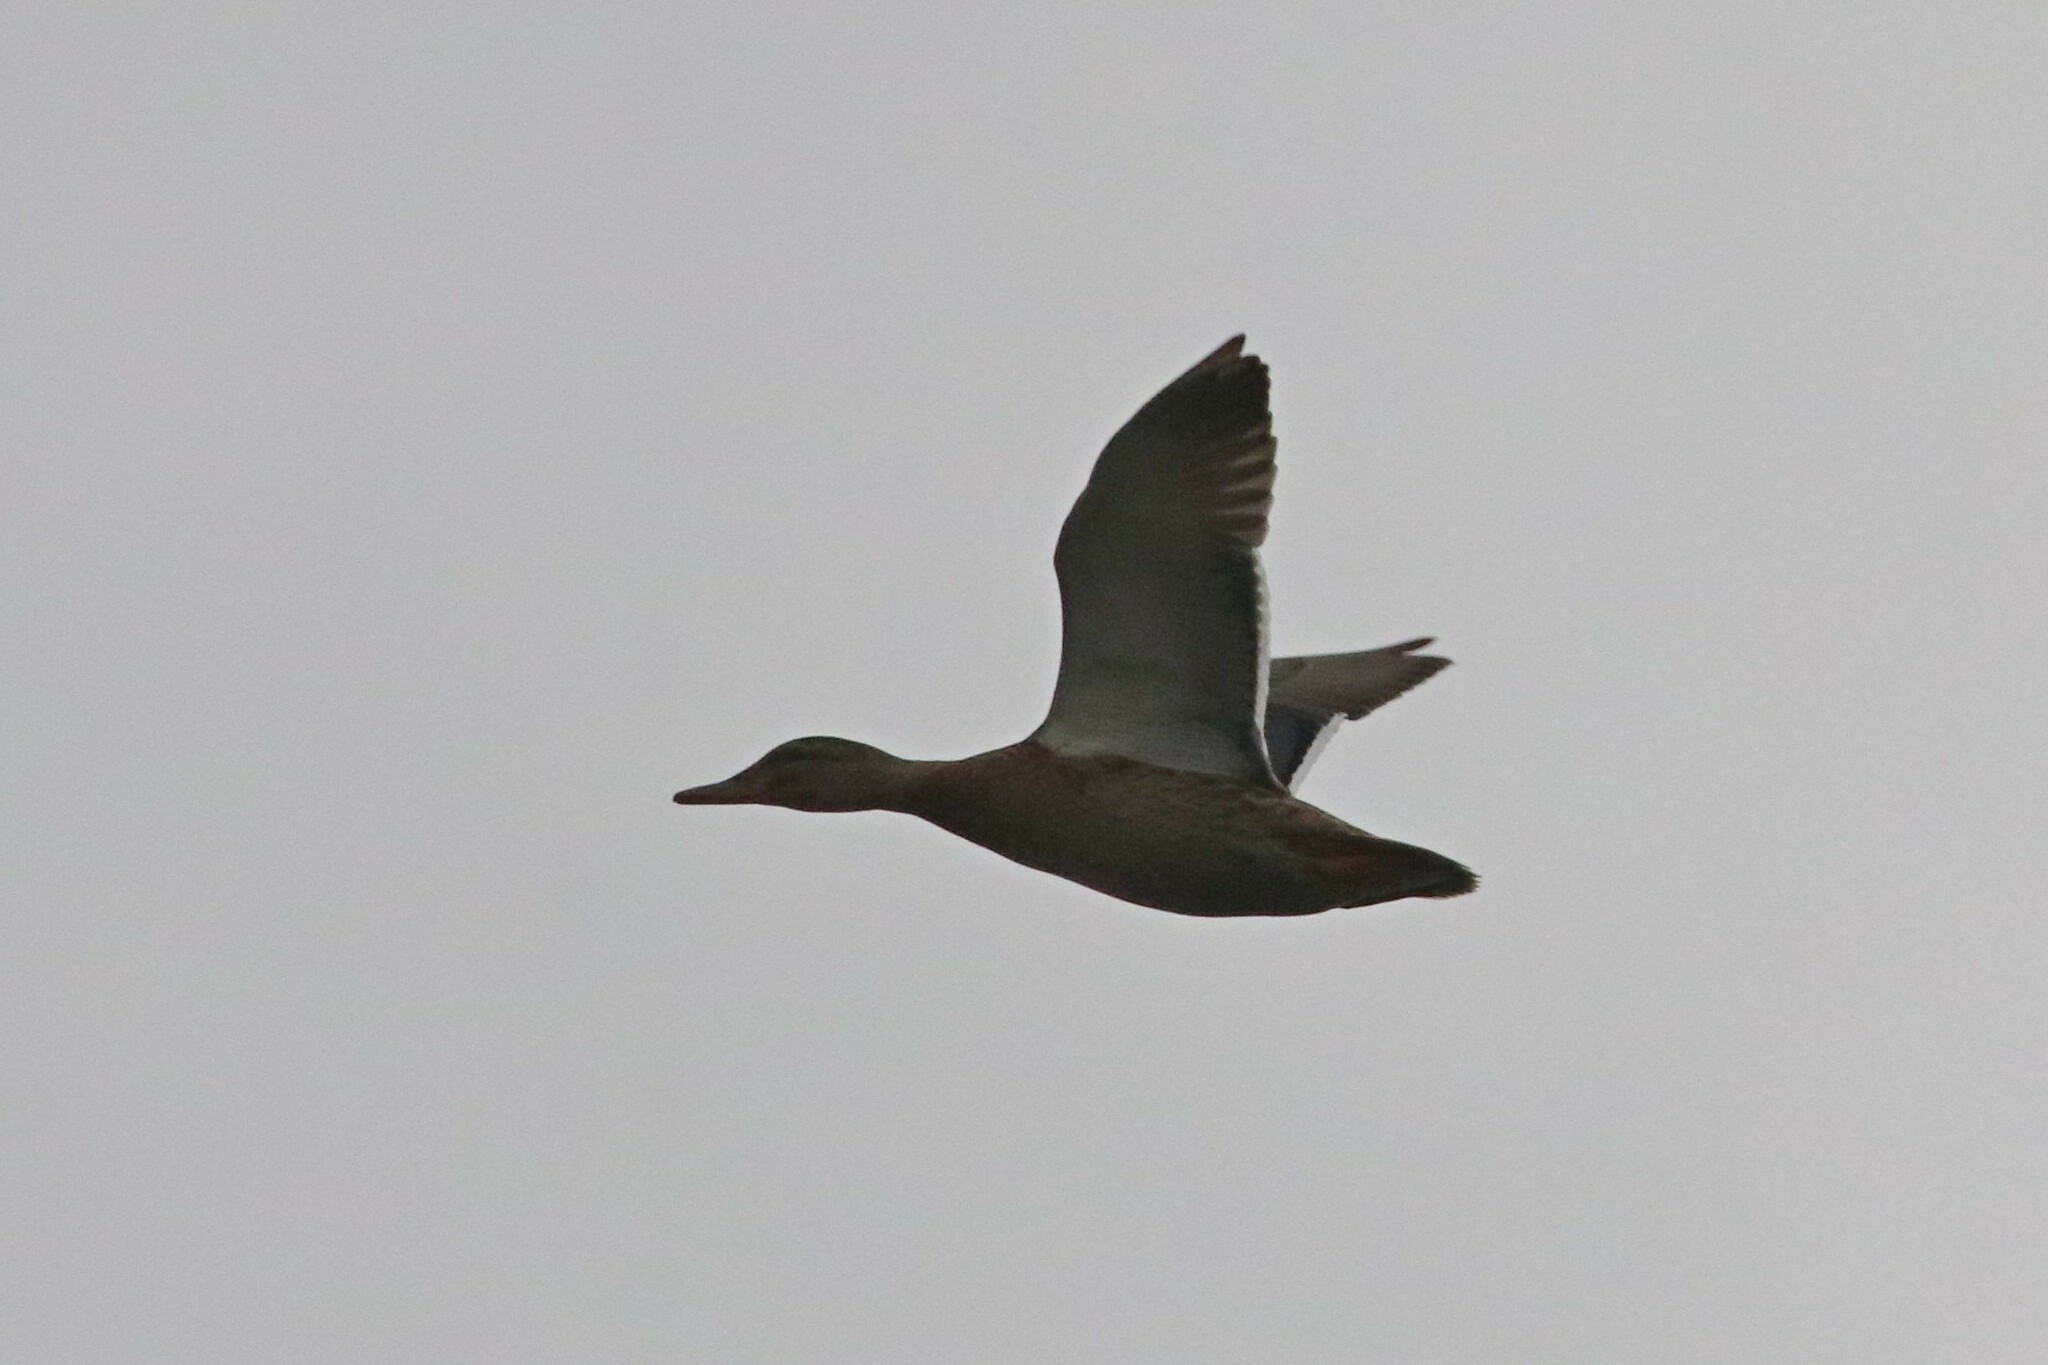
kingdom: Animalia
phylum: Chordata
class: Aves
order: Anseriformes
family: Anatidae
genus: Anas
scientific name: Anas platyrhynchos
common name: Mallard
